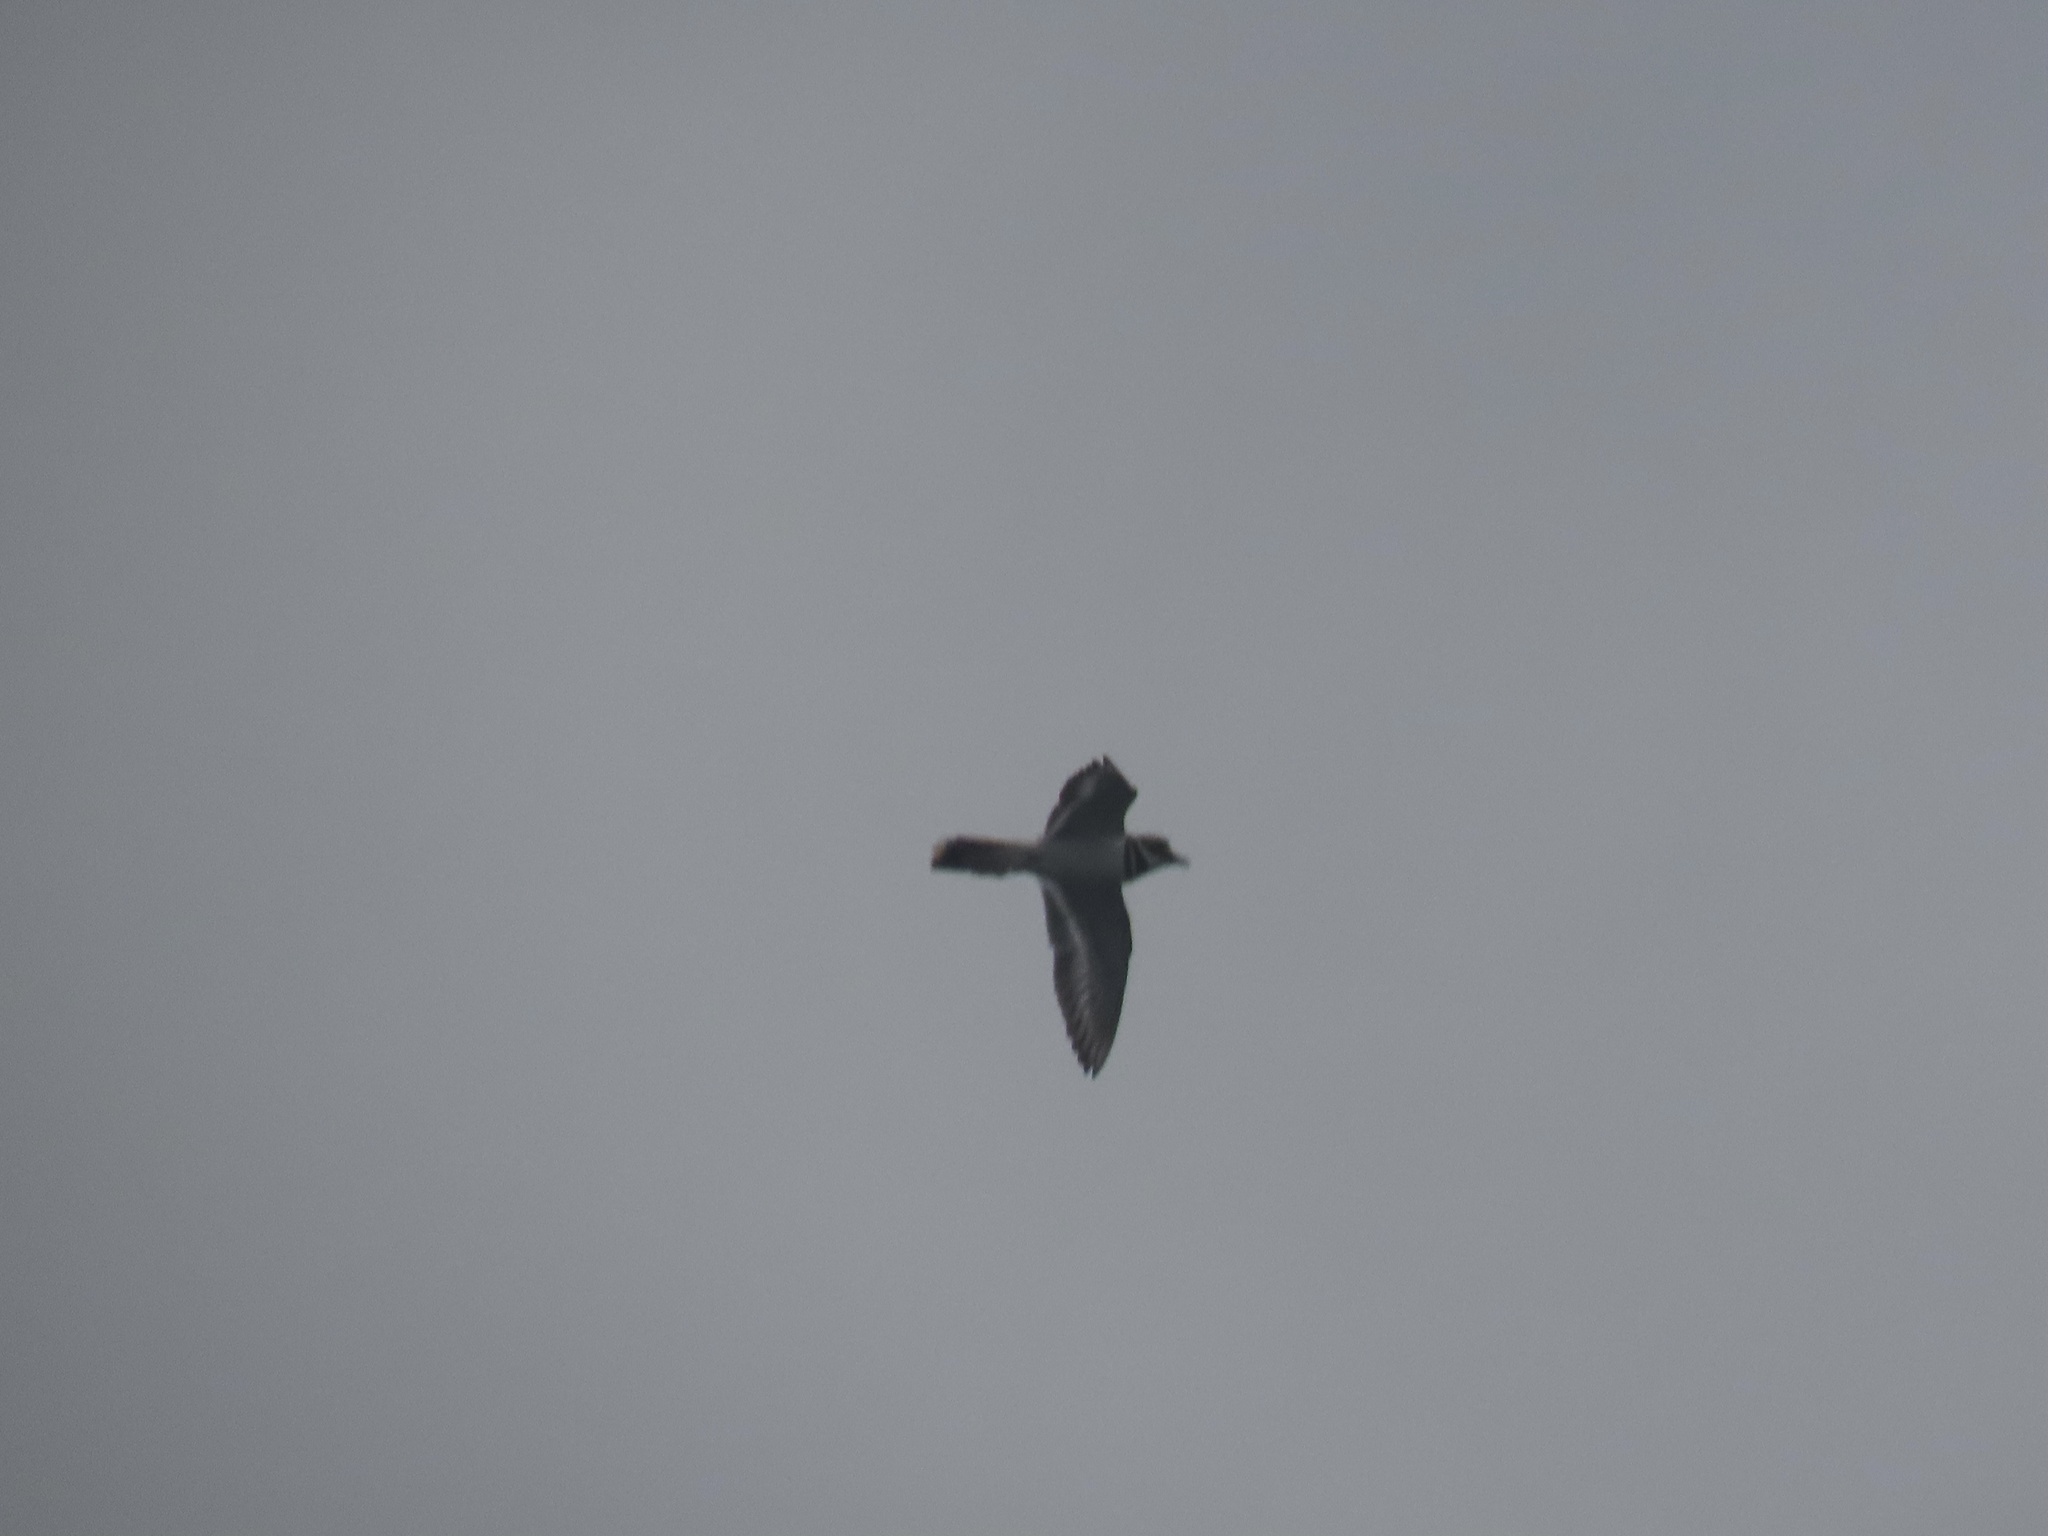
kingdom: Animalia
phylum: Chordata
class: Aves
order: Charadriiformes
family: Charadriidae
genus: Charadrius
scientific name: Charadrius vociferus
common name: Killdeer
